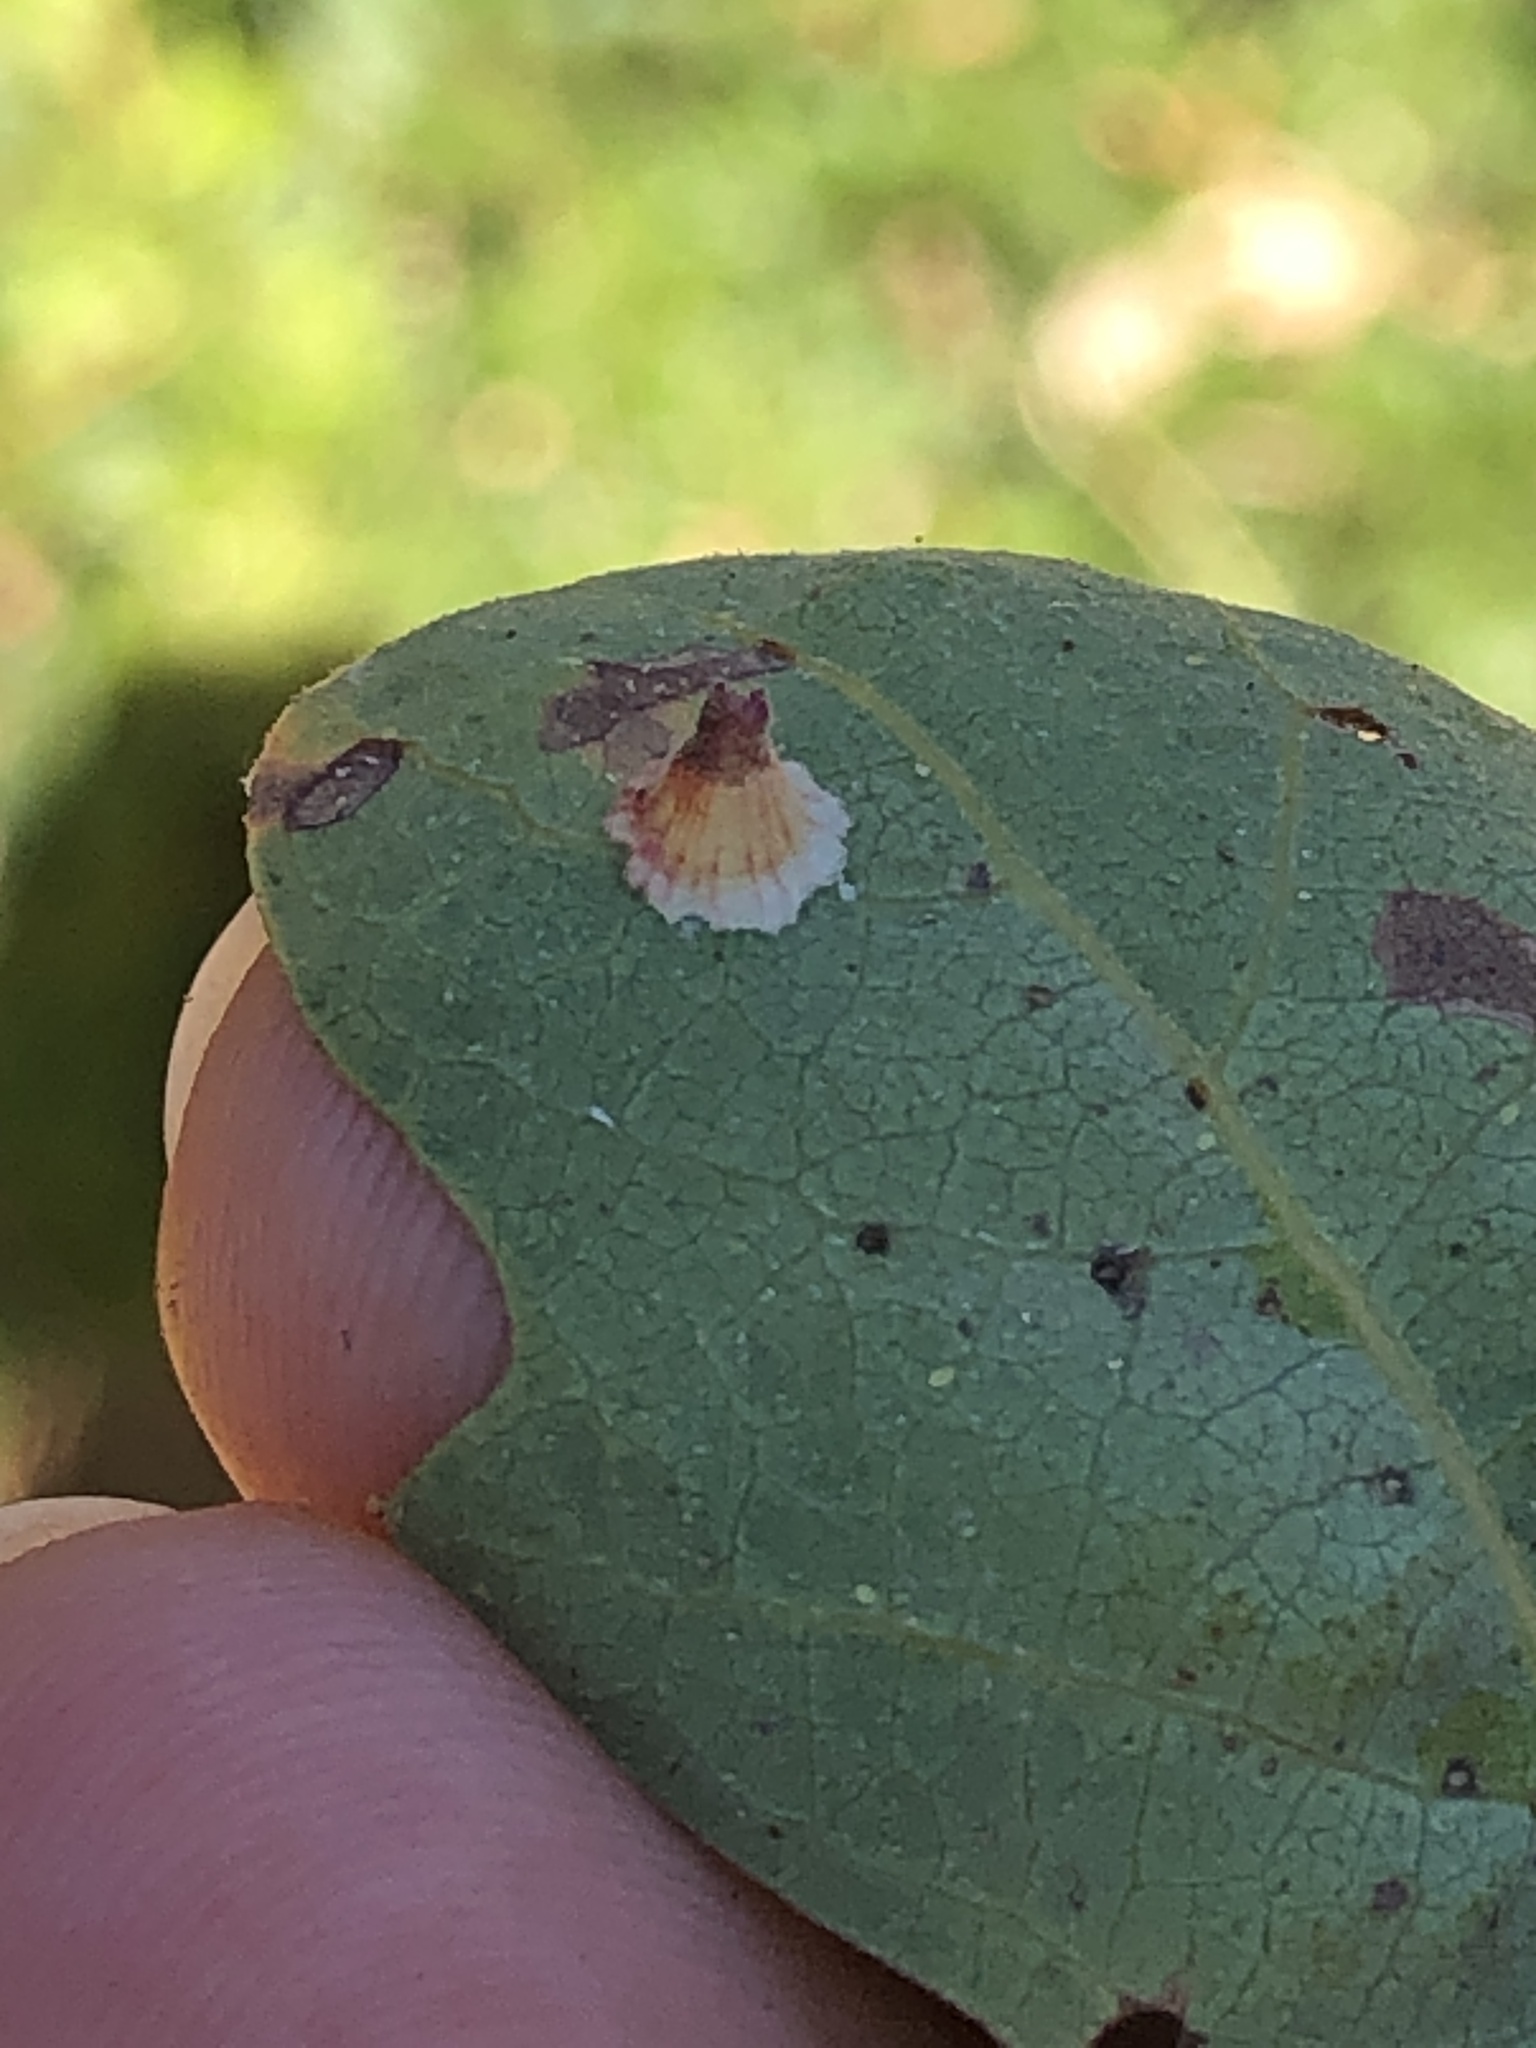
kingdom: Animalia
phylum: Arthropoda
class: Insecta
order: Hymenoptera
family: Cynipidae
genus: Andricus
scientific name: Andricus
